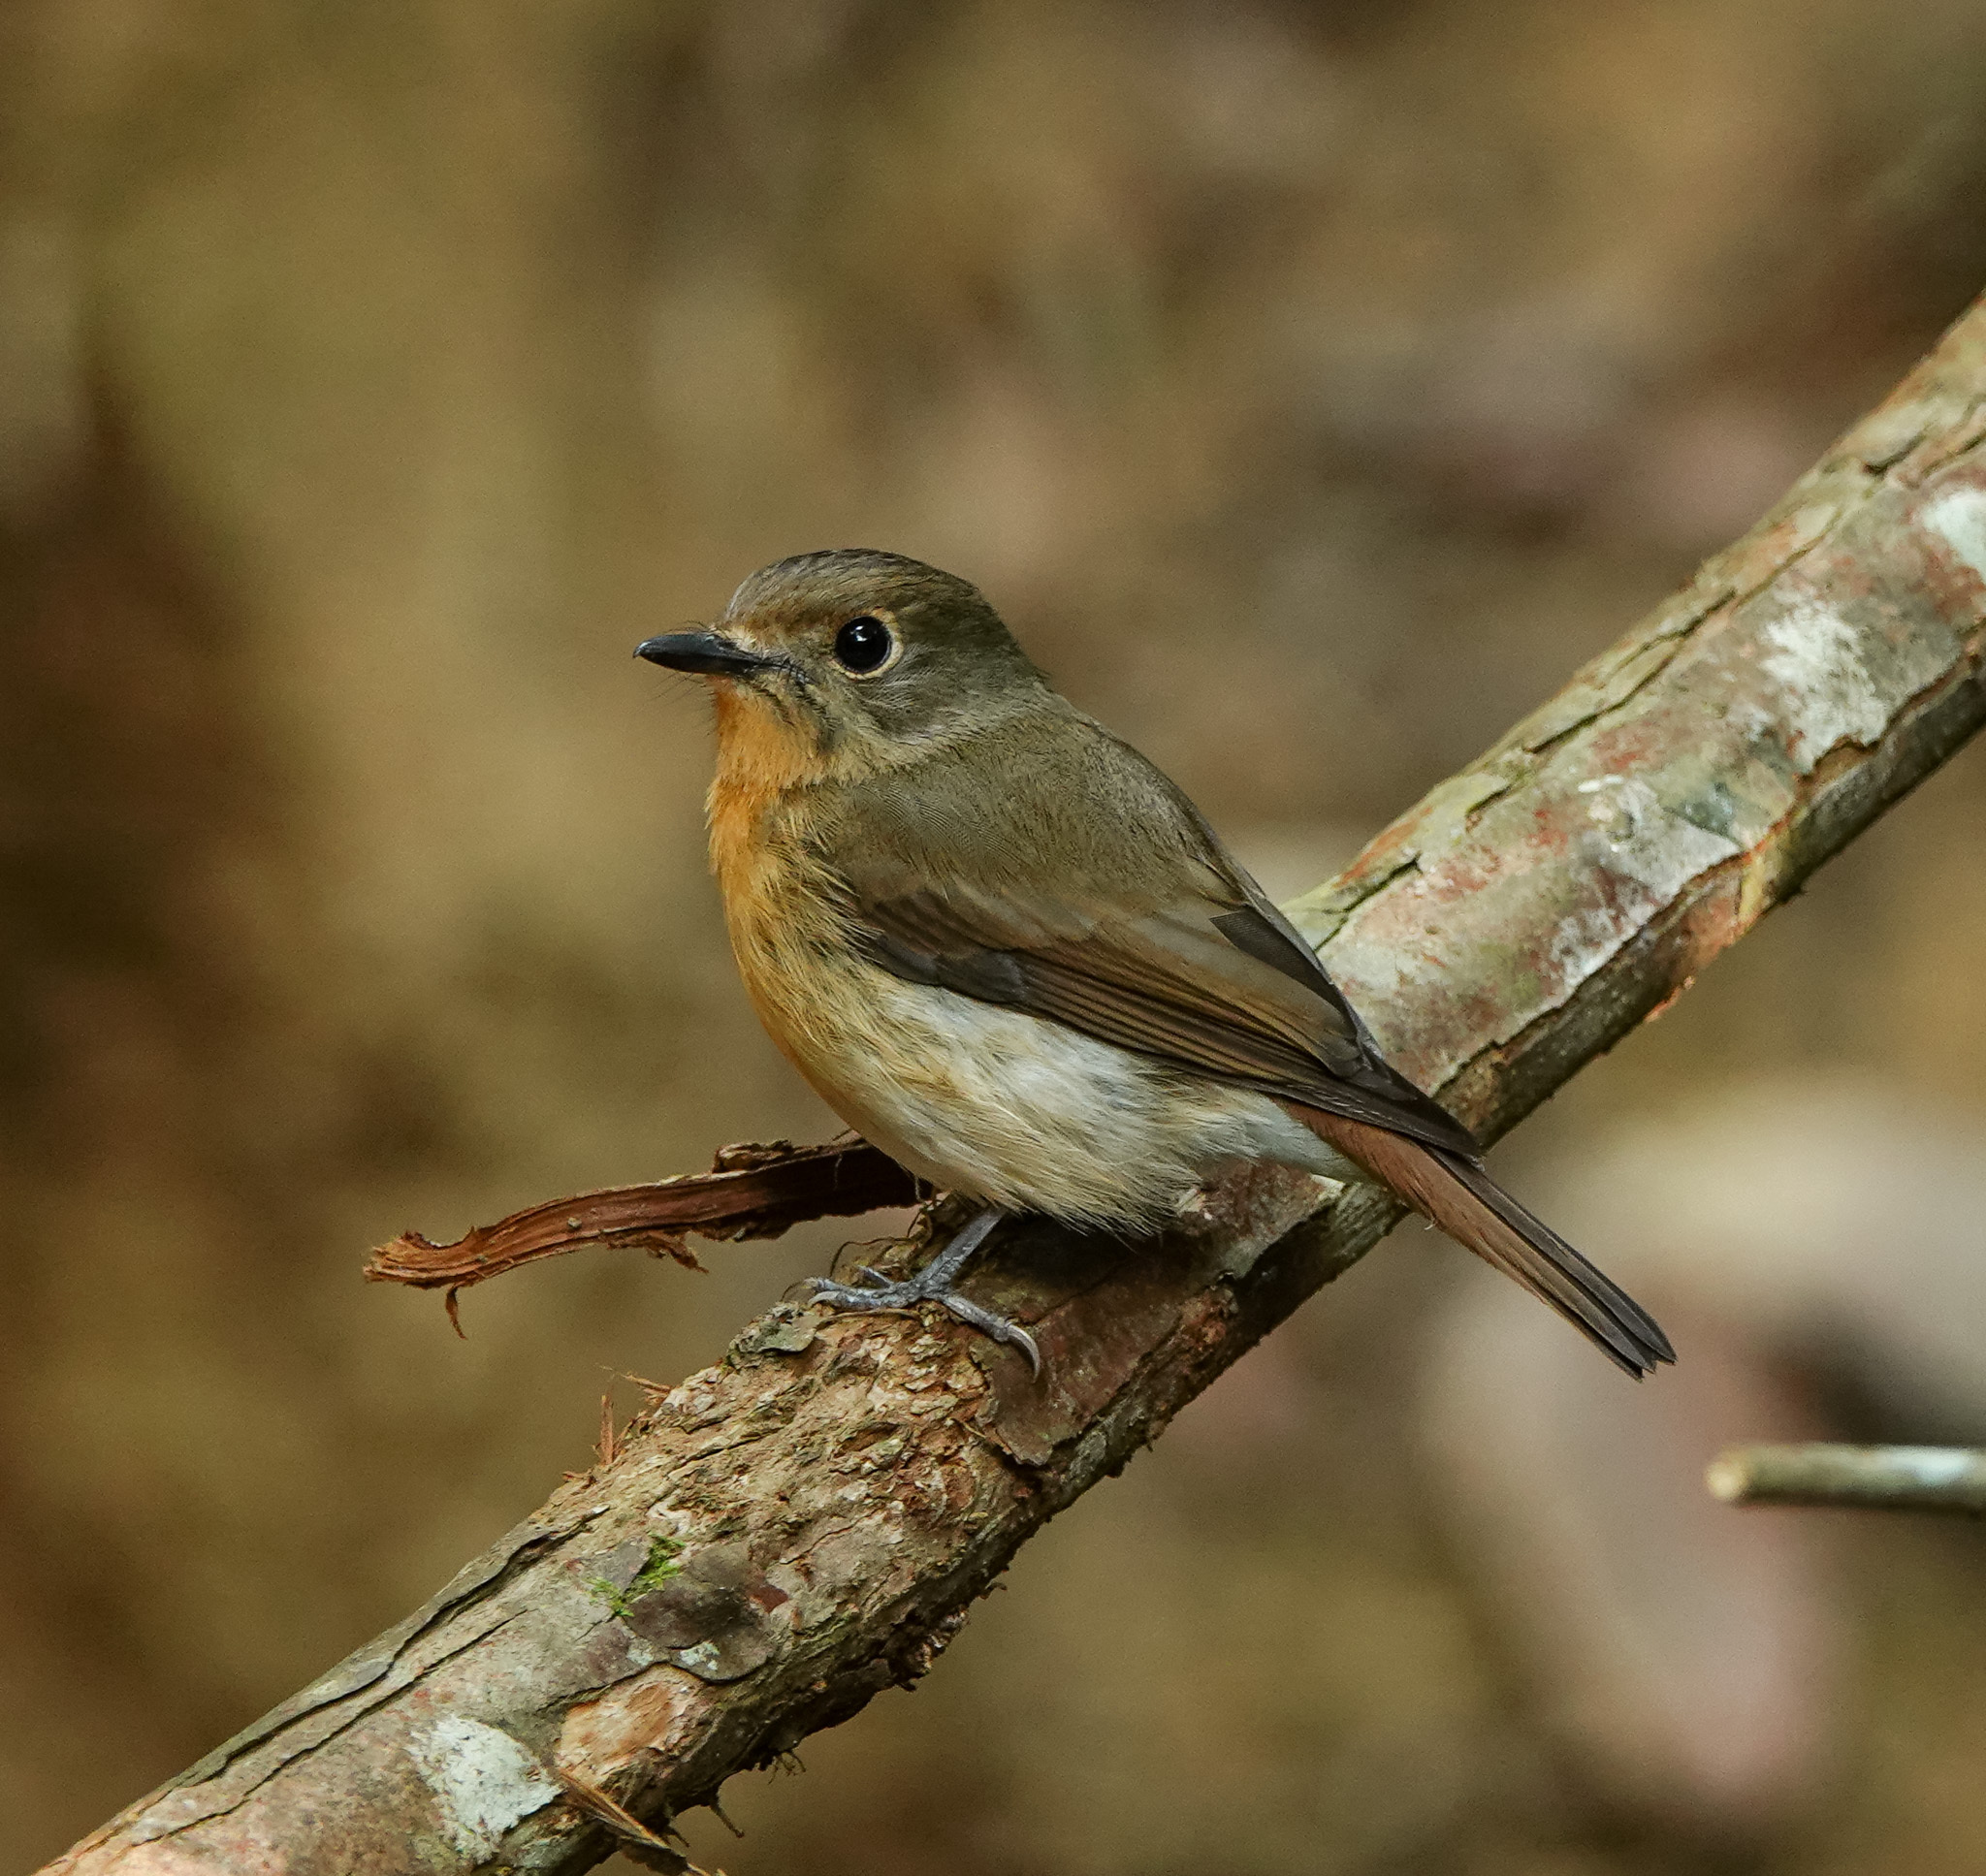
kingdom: Animalia
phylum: Chordata
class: Aves
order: Passeriformes
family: Muscicapidae
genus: Cyornis
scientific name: Cyornis whitei
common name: Hill blue flycatcher
